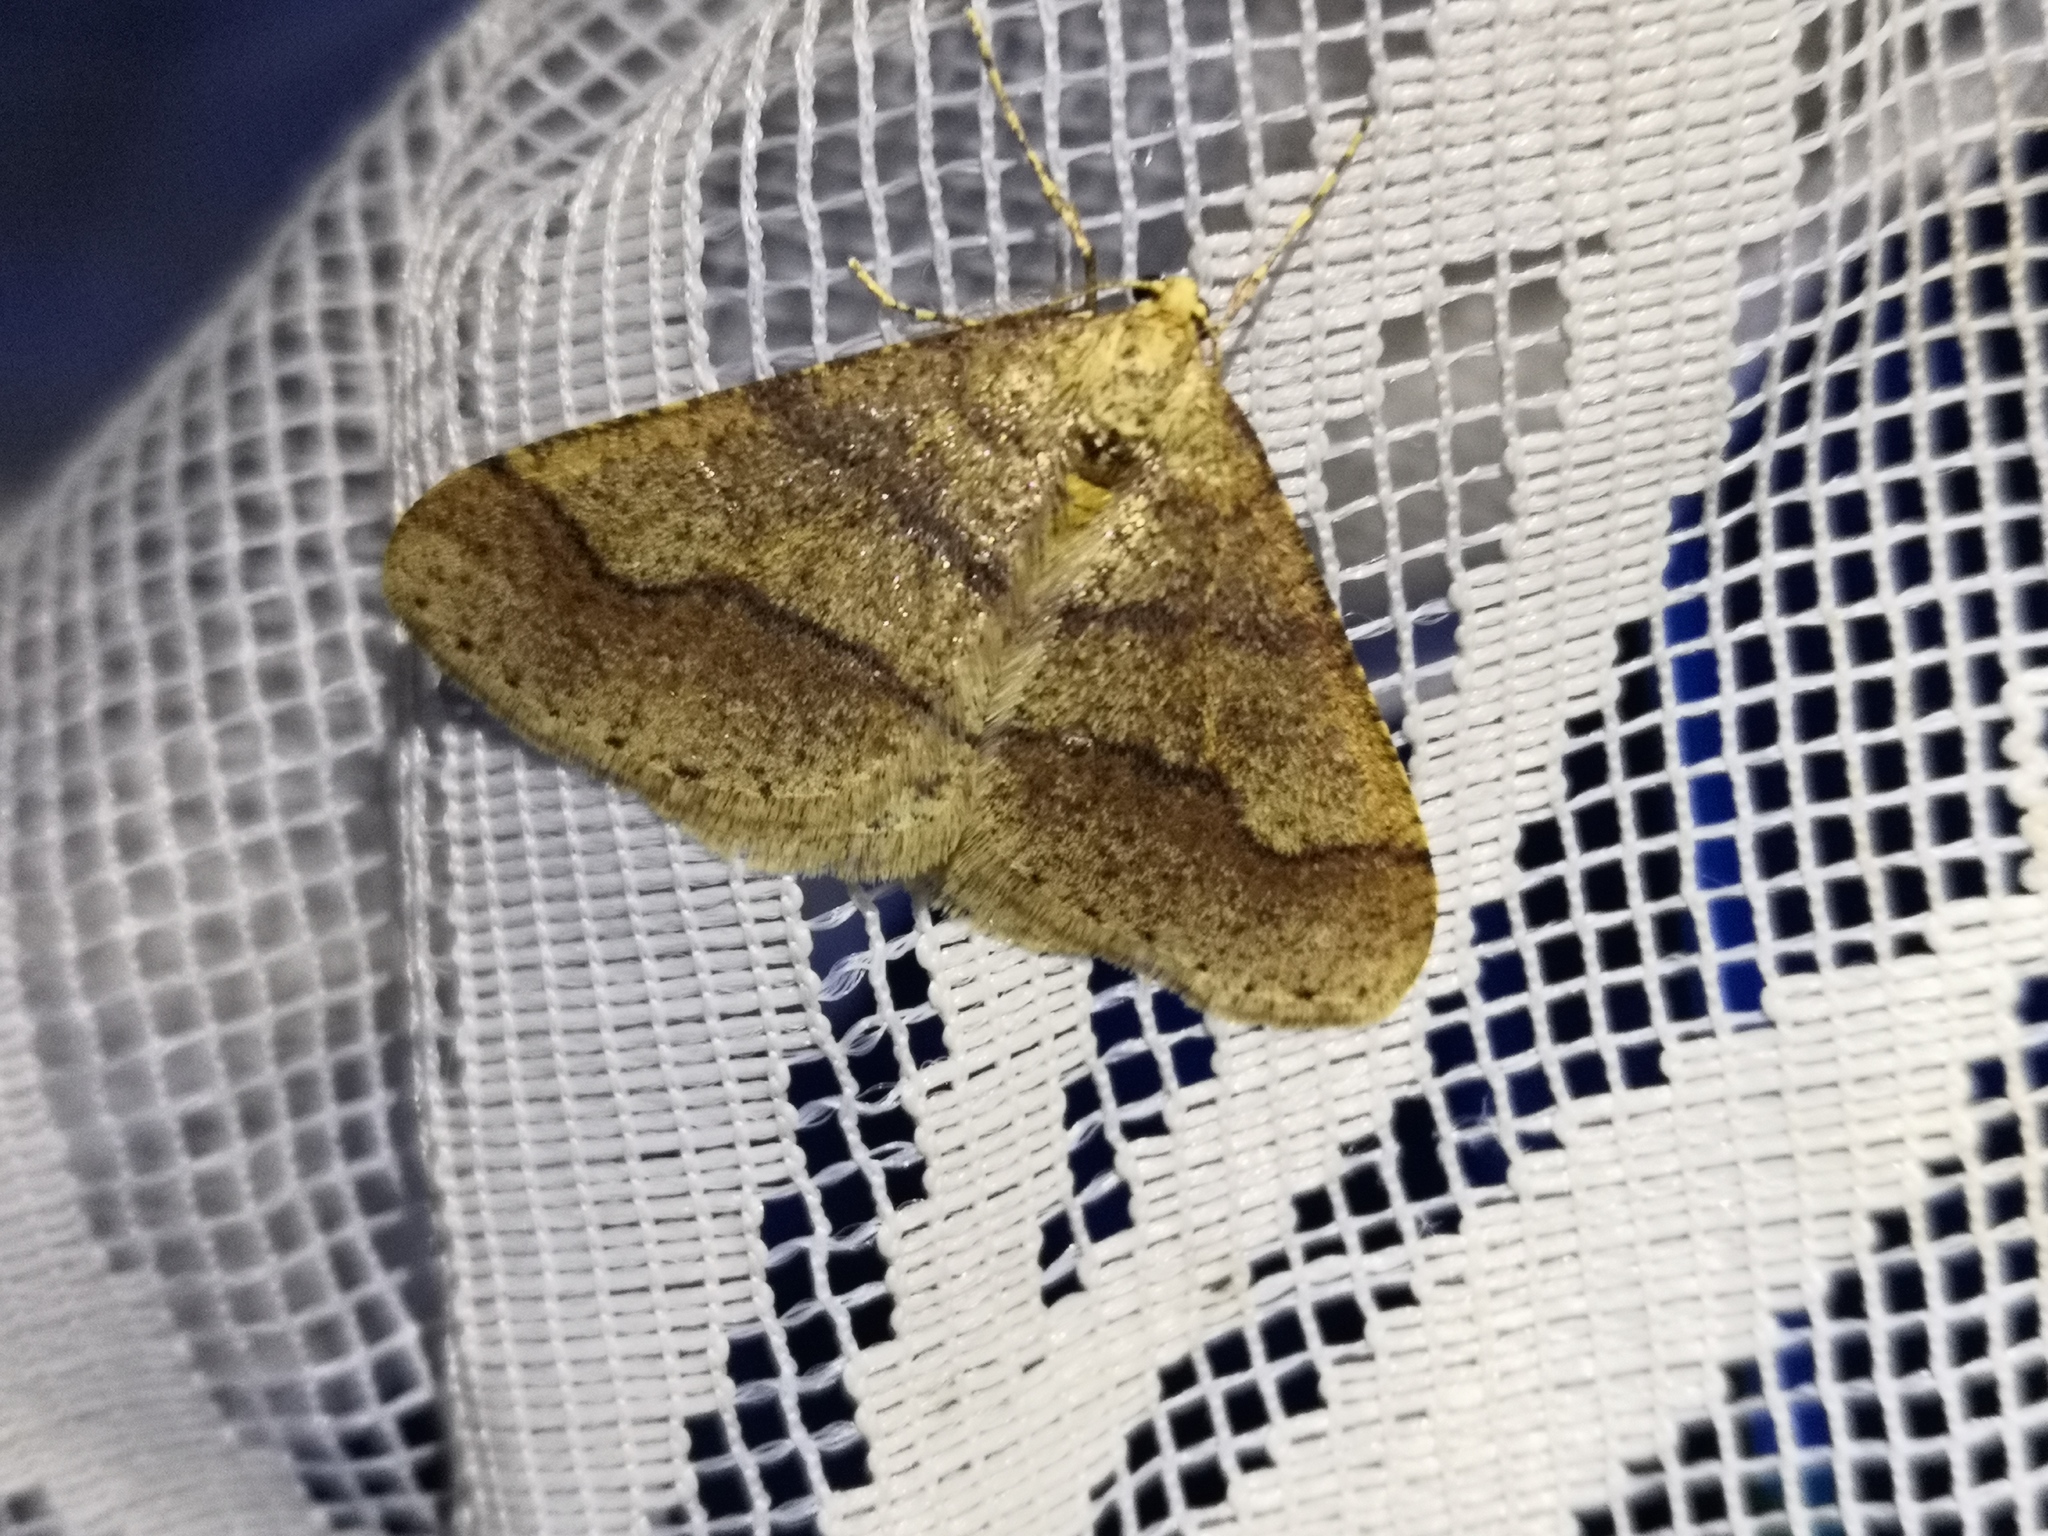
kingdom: Animalia
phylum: Arthropoda
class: Insecta
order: Lepidoptera
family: Geometridae
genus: Agriopis
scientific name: Agriopis marginaria
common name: Dotted border
